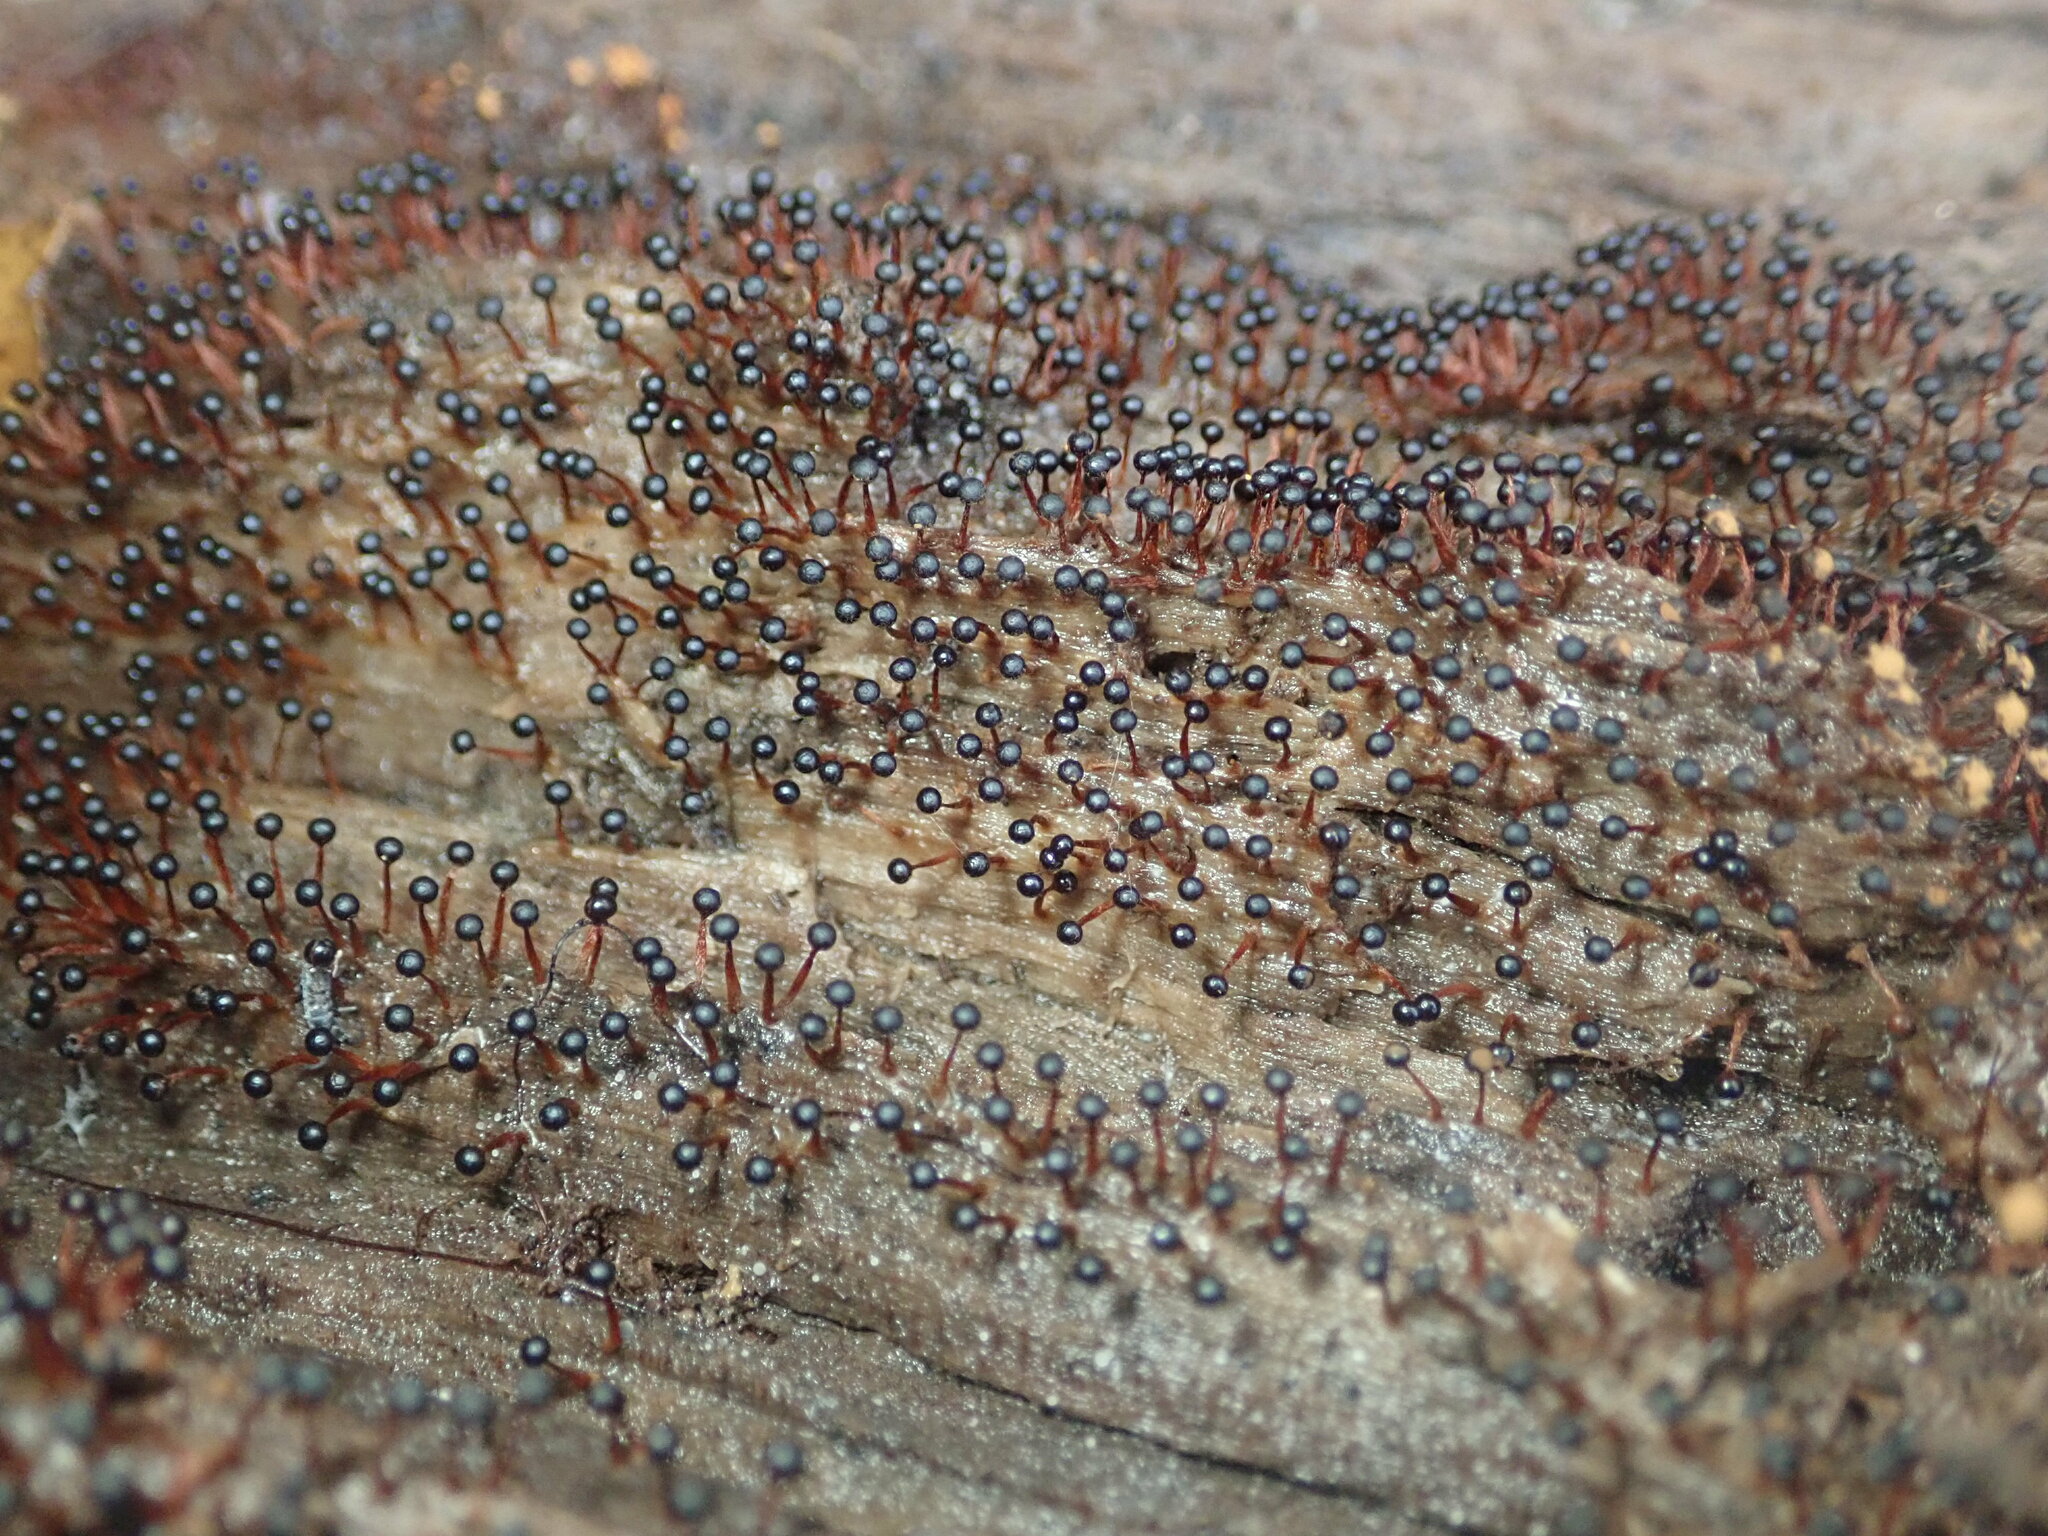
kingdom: Protozoa
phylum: Mycetozoa
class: Myxomycetes
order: Trichiales
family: Trichiaceae
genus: Metatrichia
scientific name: Metatrichia floriformis
